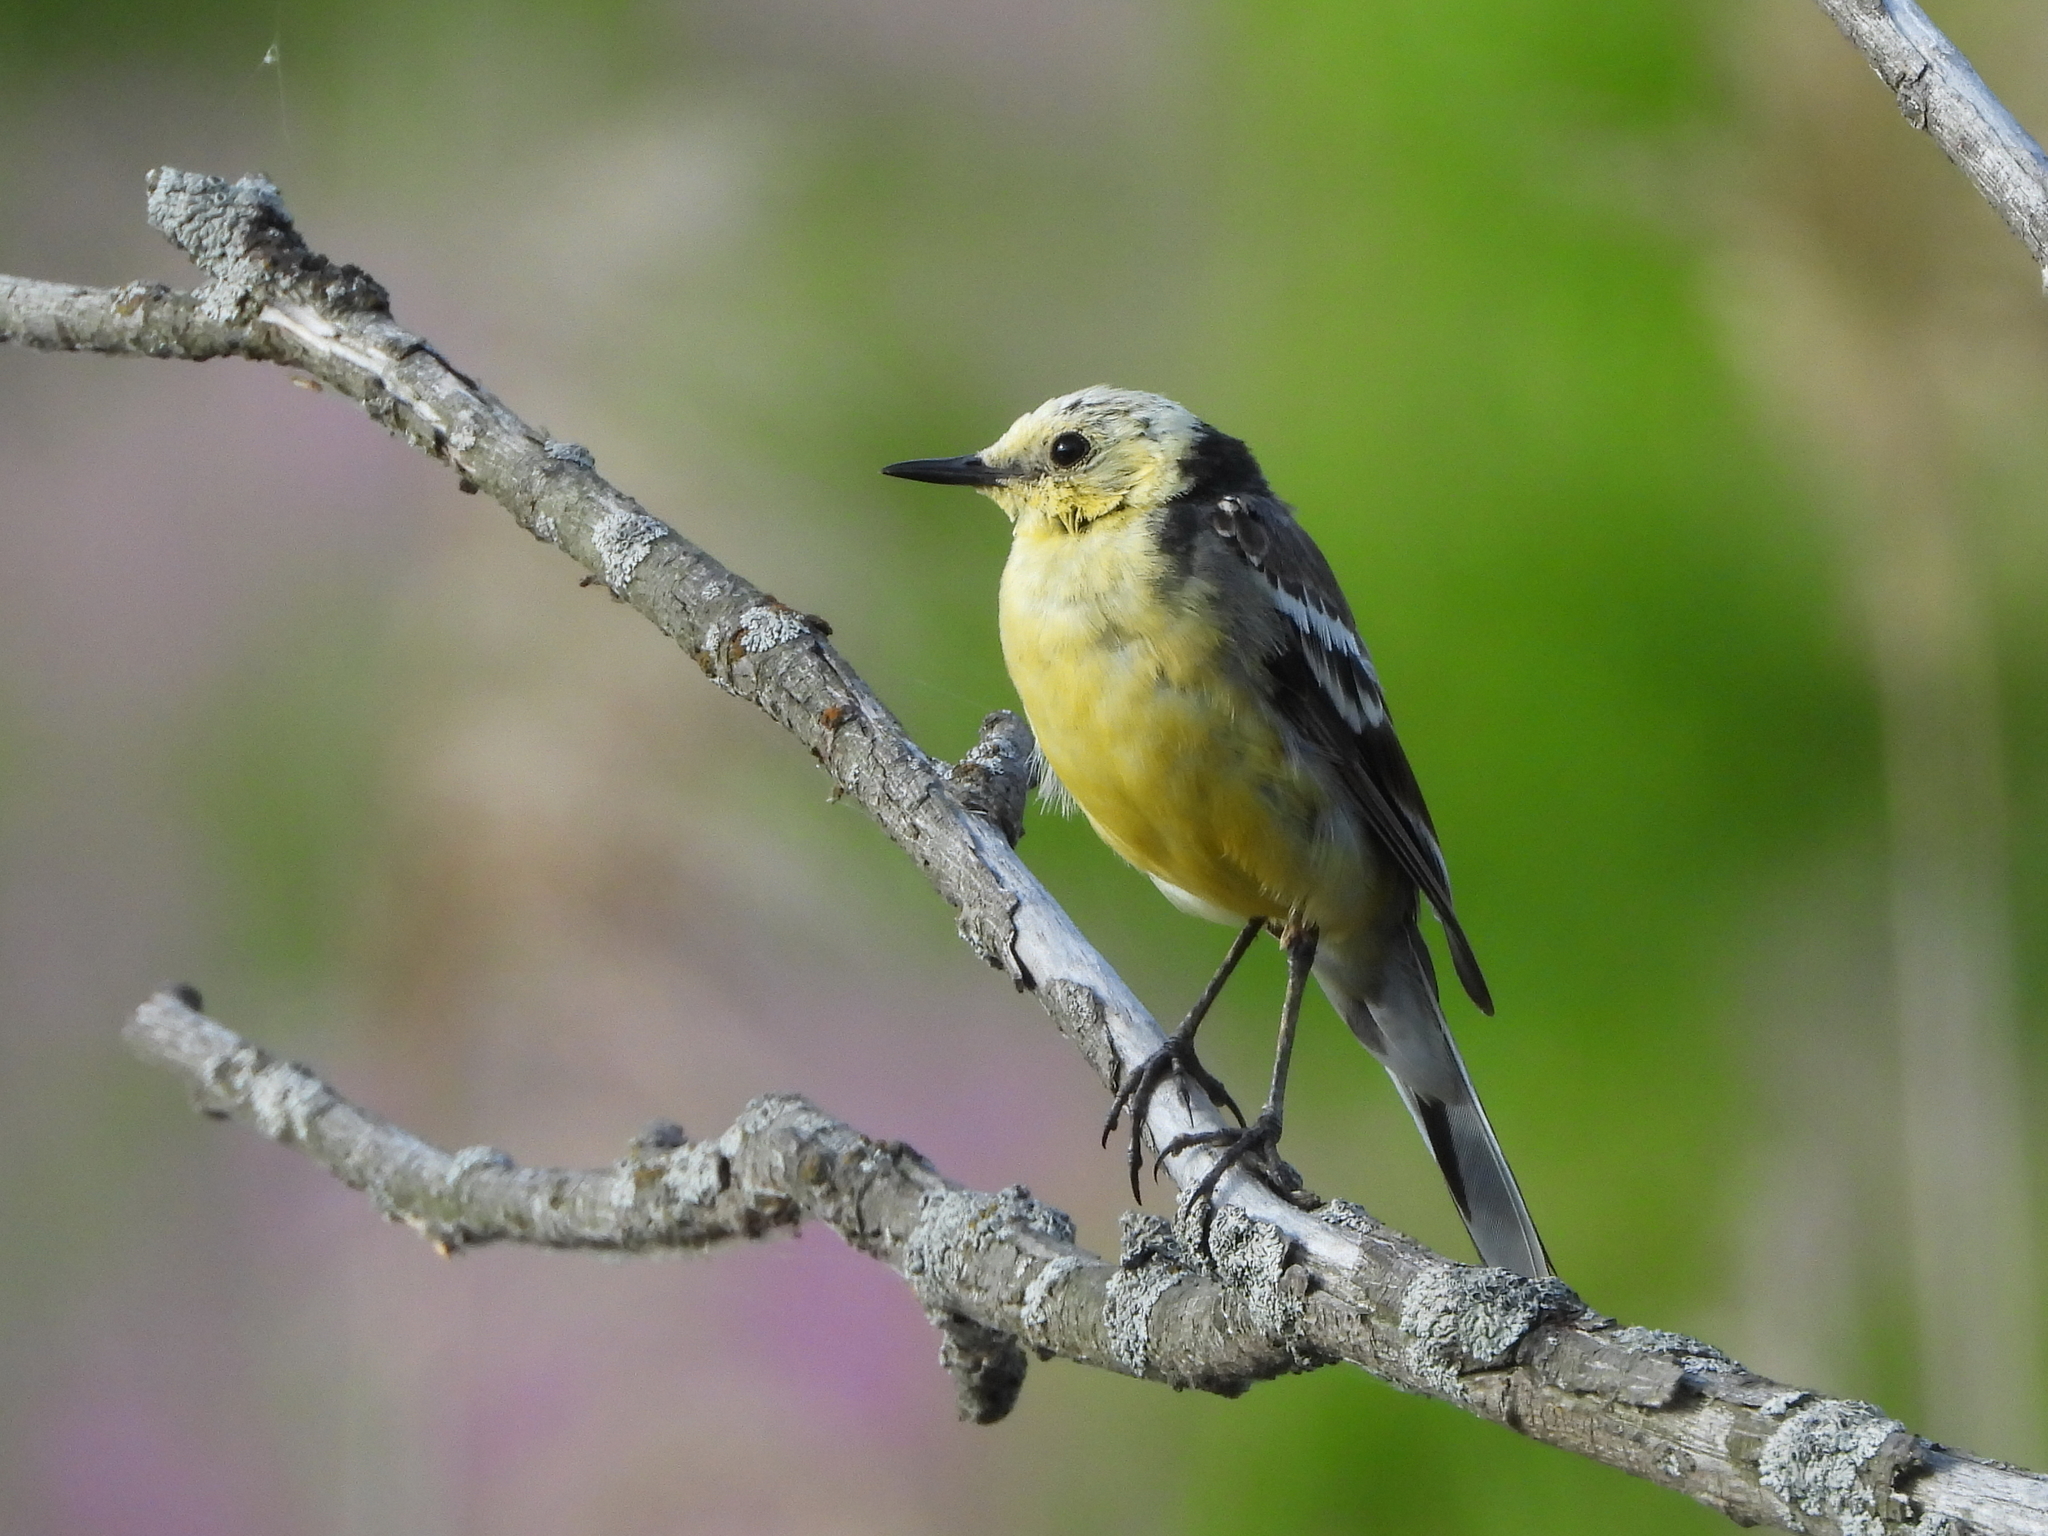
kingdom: Animalia
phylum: Chordata
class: Aves
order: Passeriformes
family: Motacillidae
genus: Motacilla
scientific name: Motacilla citreola
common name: Citrine wagtail
